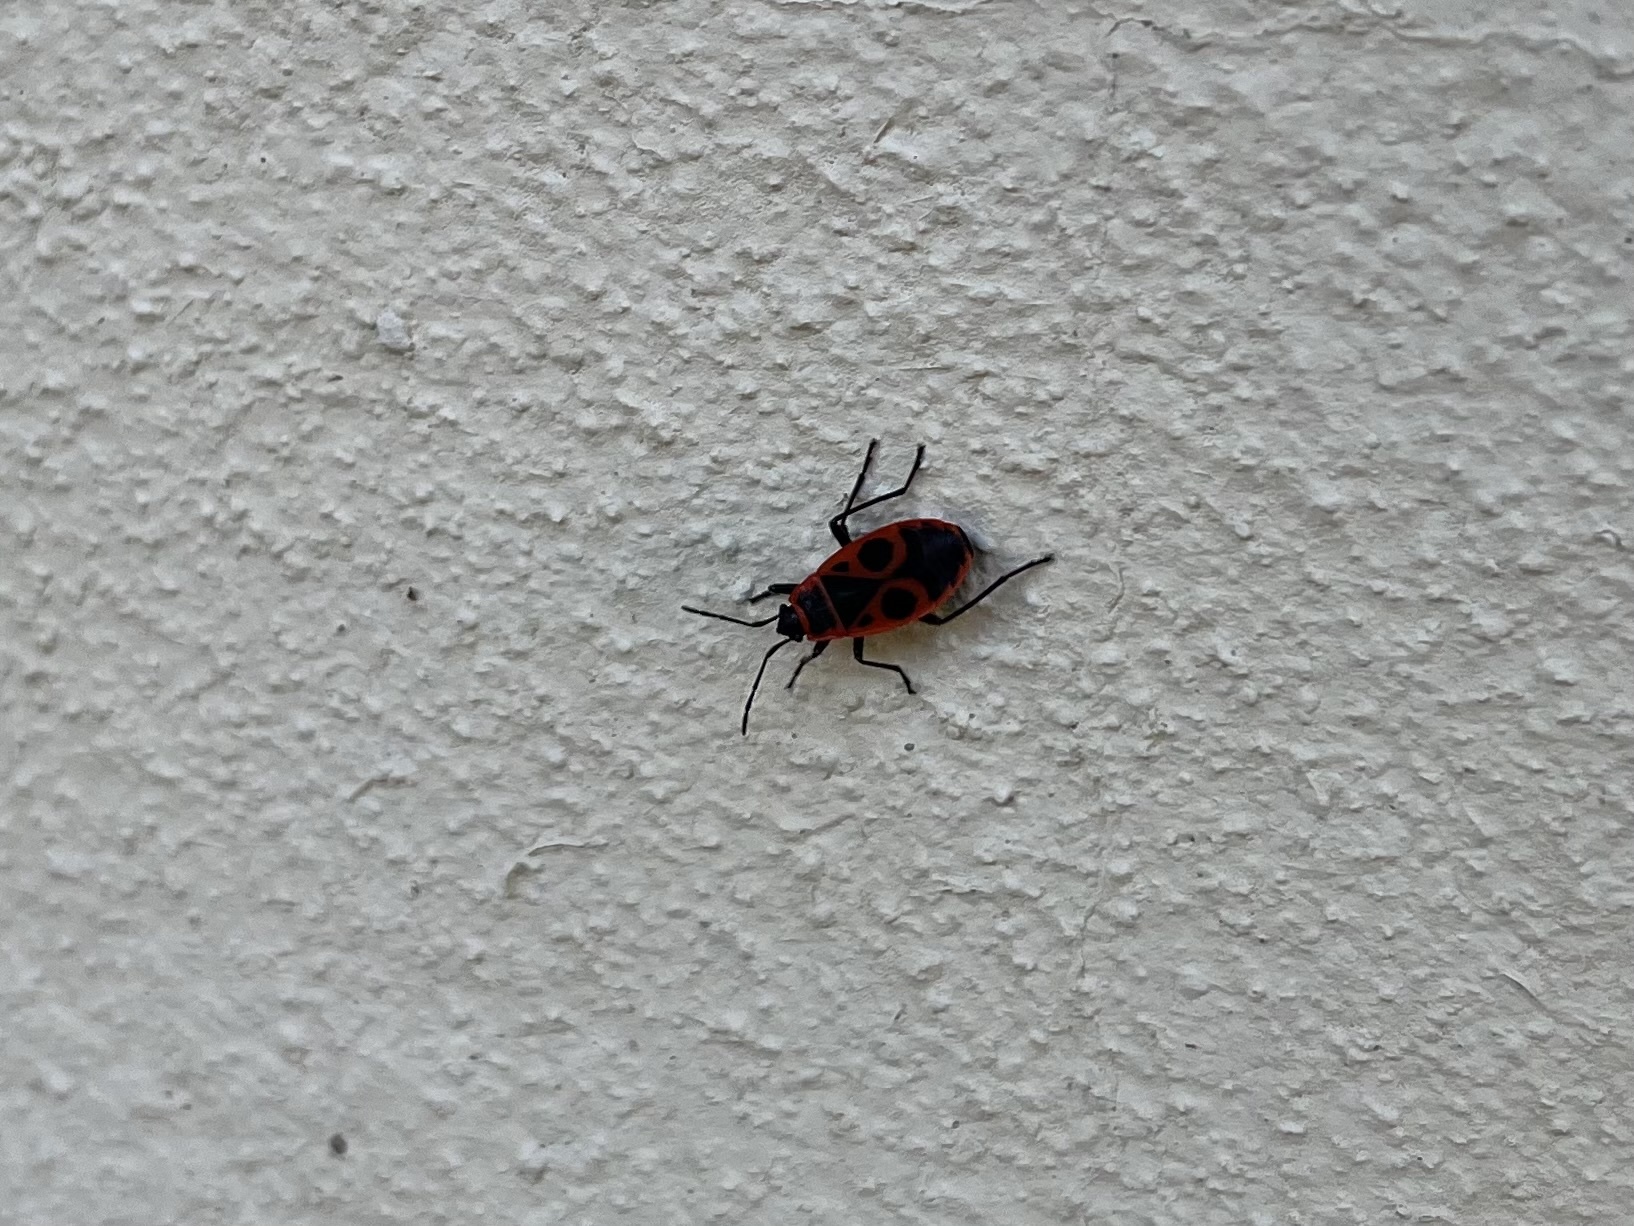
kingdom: Animalia
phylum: Arthropoda
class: Insecta
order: Hemiptera
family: Pyrrhocoridae
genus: Pyrrhocoris
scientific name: Pyrrhocoris apterus
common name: Firebug
